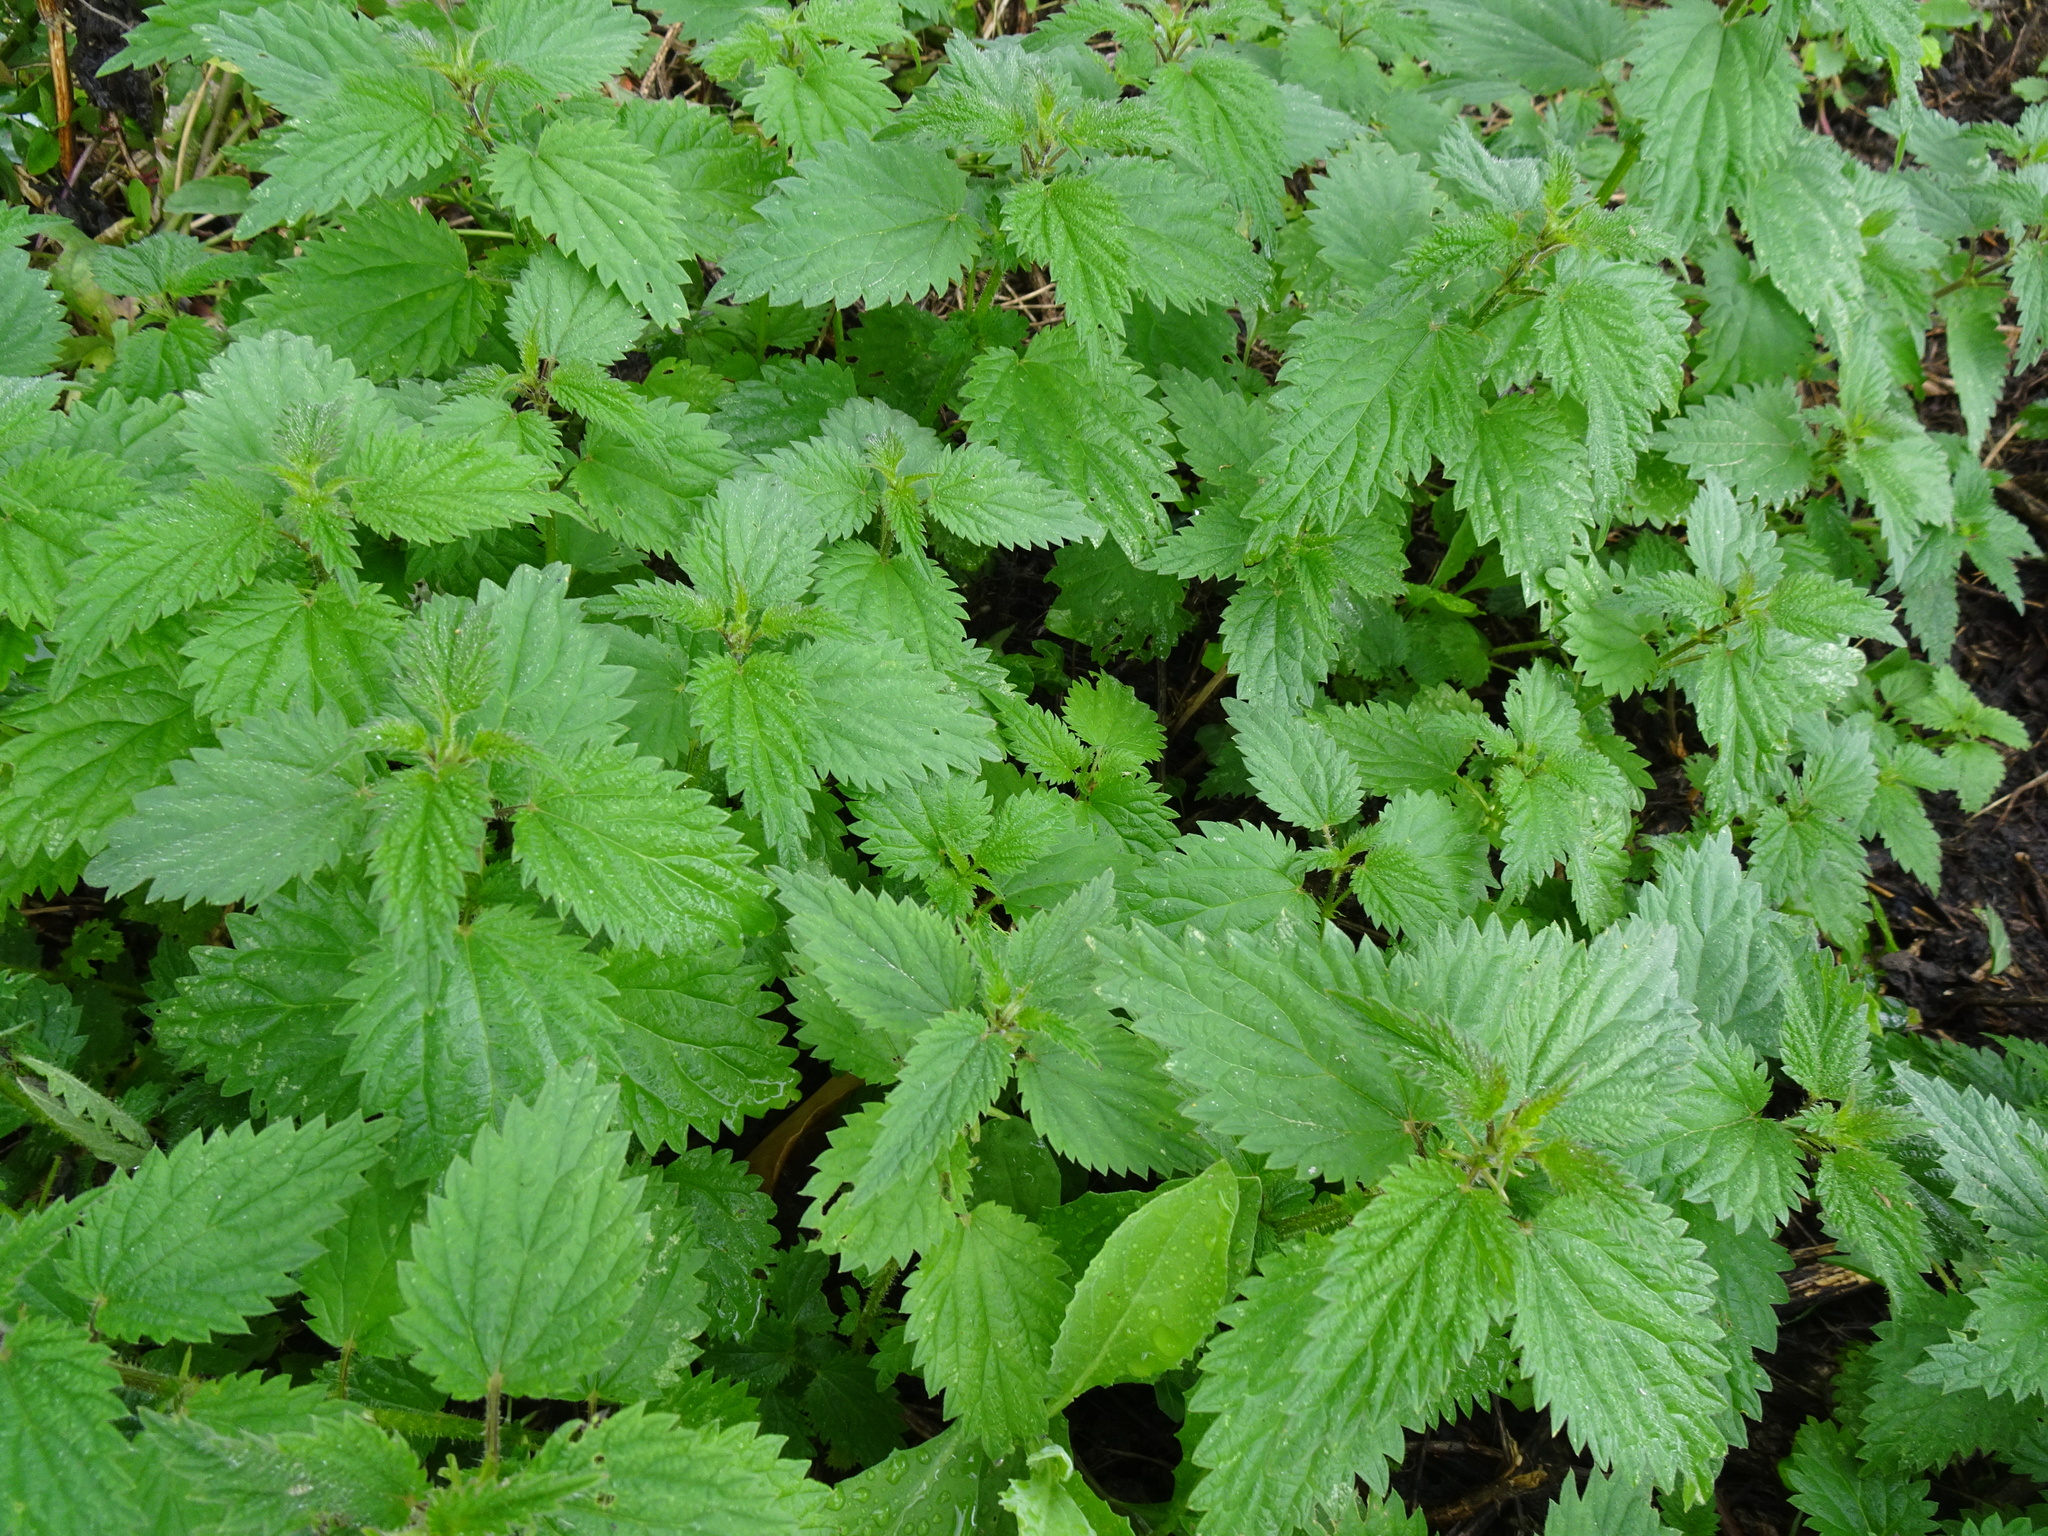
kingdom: Plantae
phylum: Tracheophyta
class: Magnoliopsida
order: Rosales
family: Urticaceae
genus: Urtica
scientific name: Urtica dioica
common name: Common nettle
